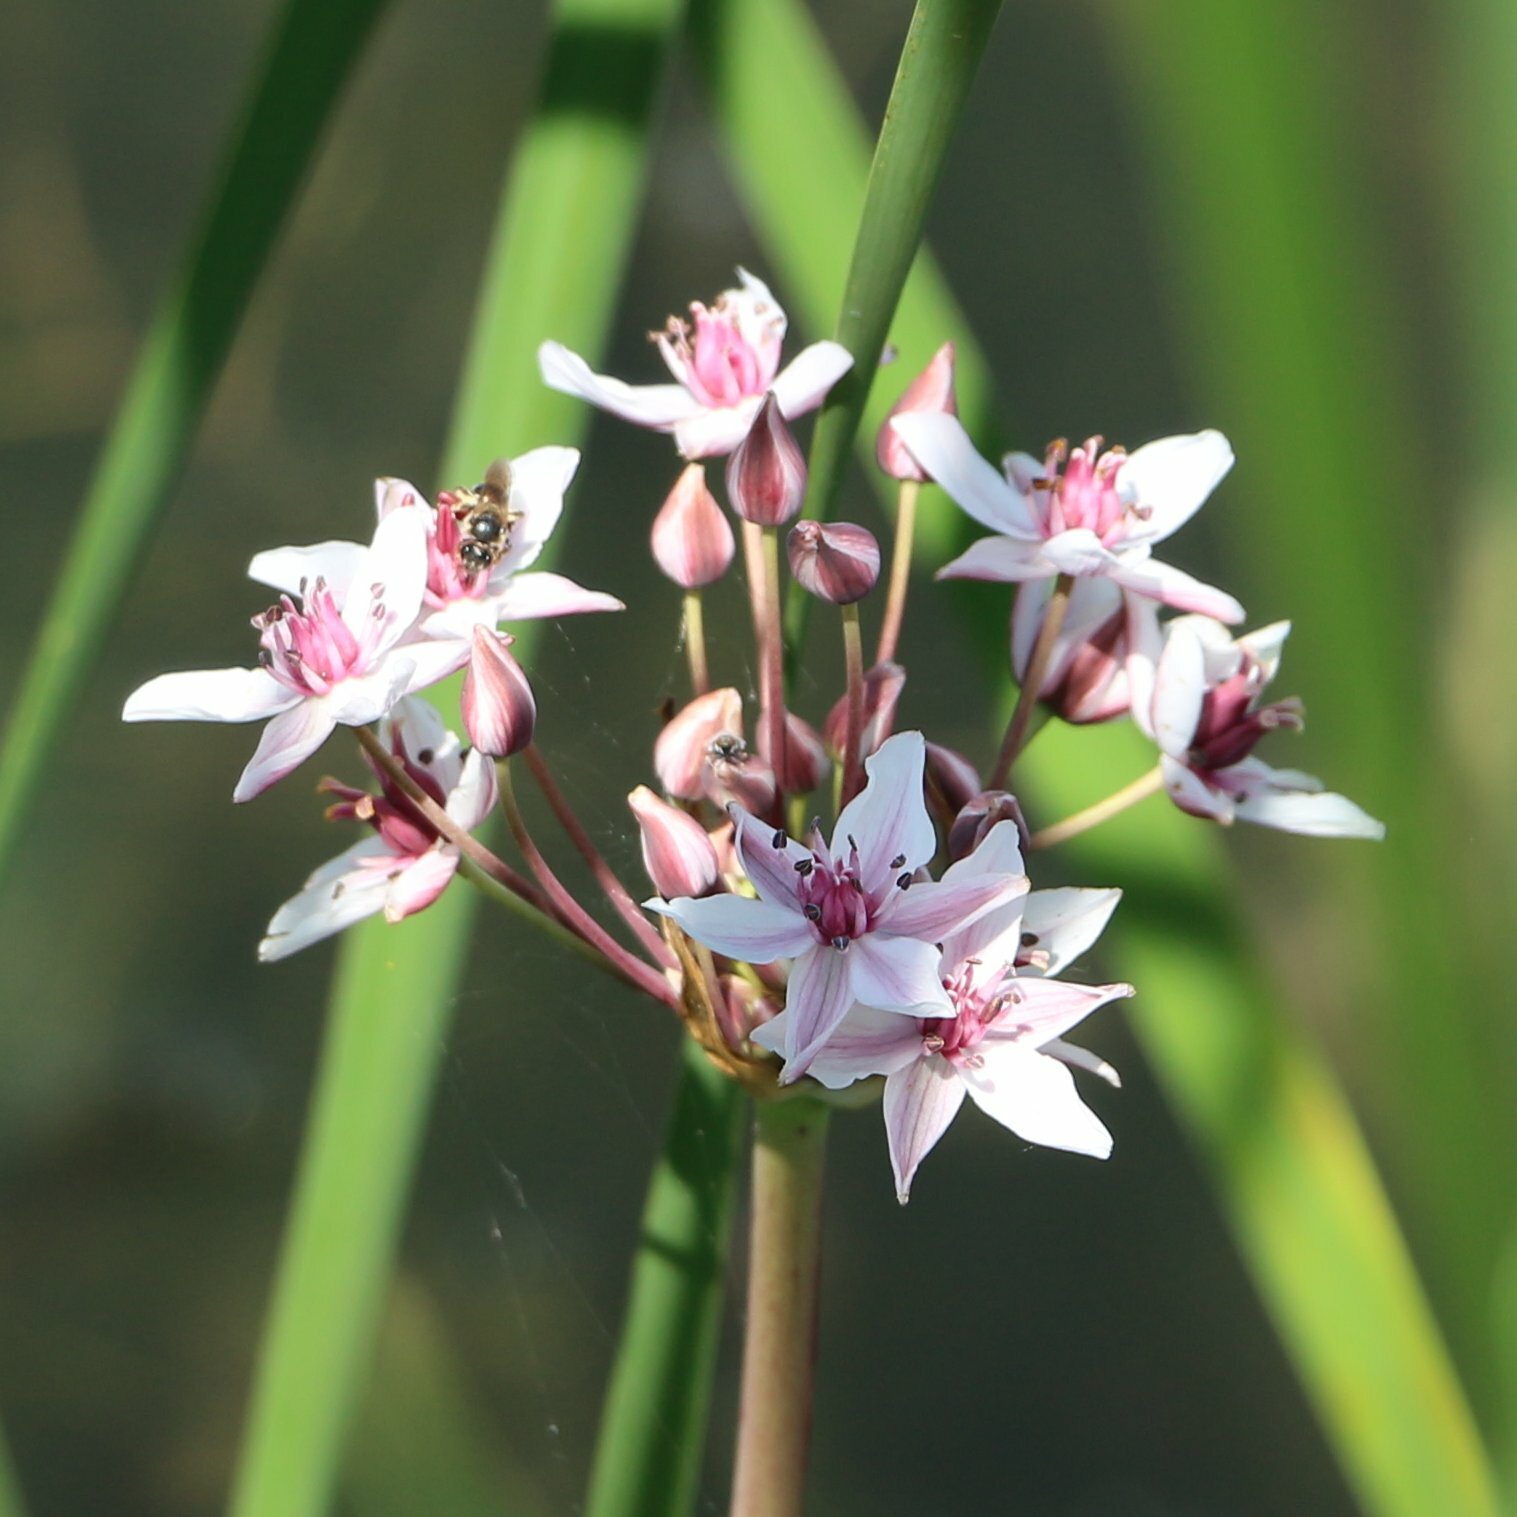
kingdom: Plantae
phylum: Tracheophyta
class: Liliopsida
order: Alismatales
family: Butomaceae
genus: Butomus
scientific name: Butomus umbellatus
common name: Flowering-rush
